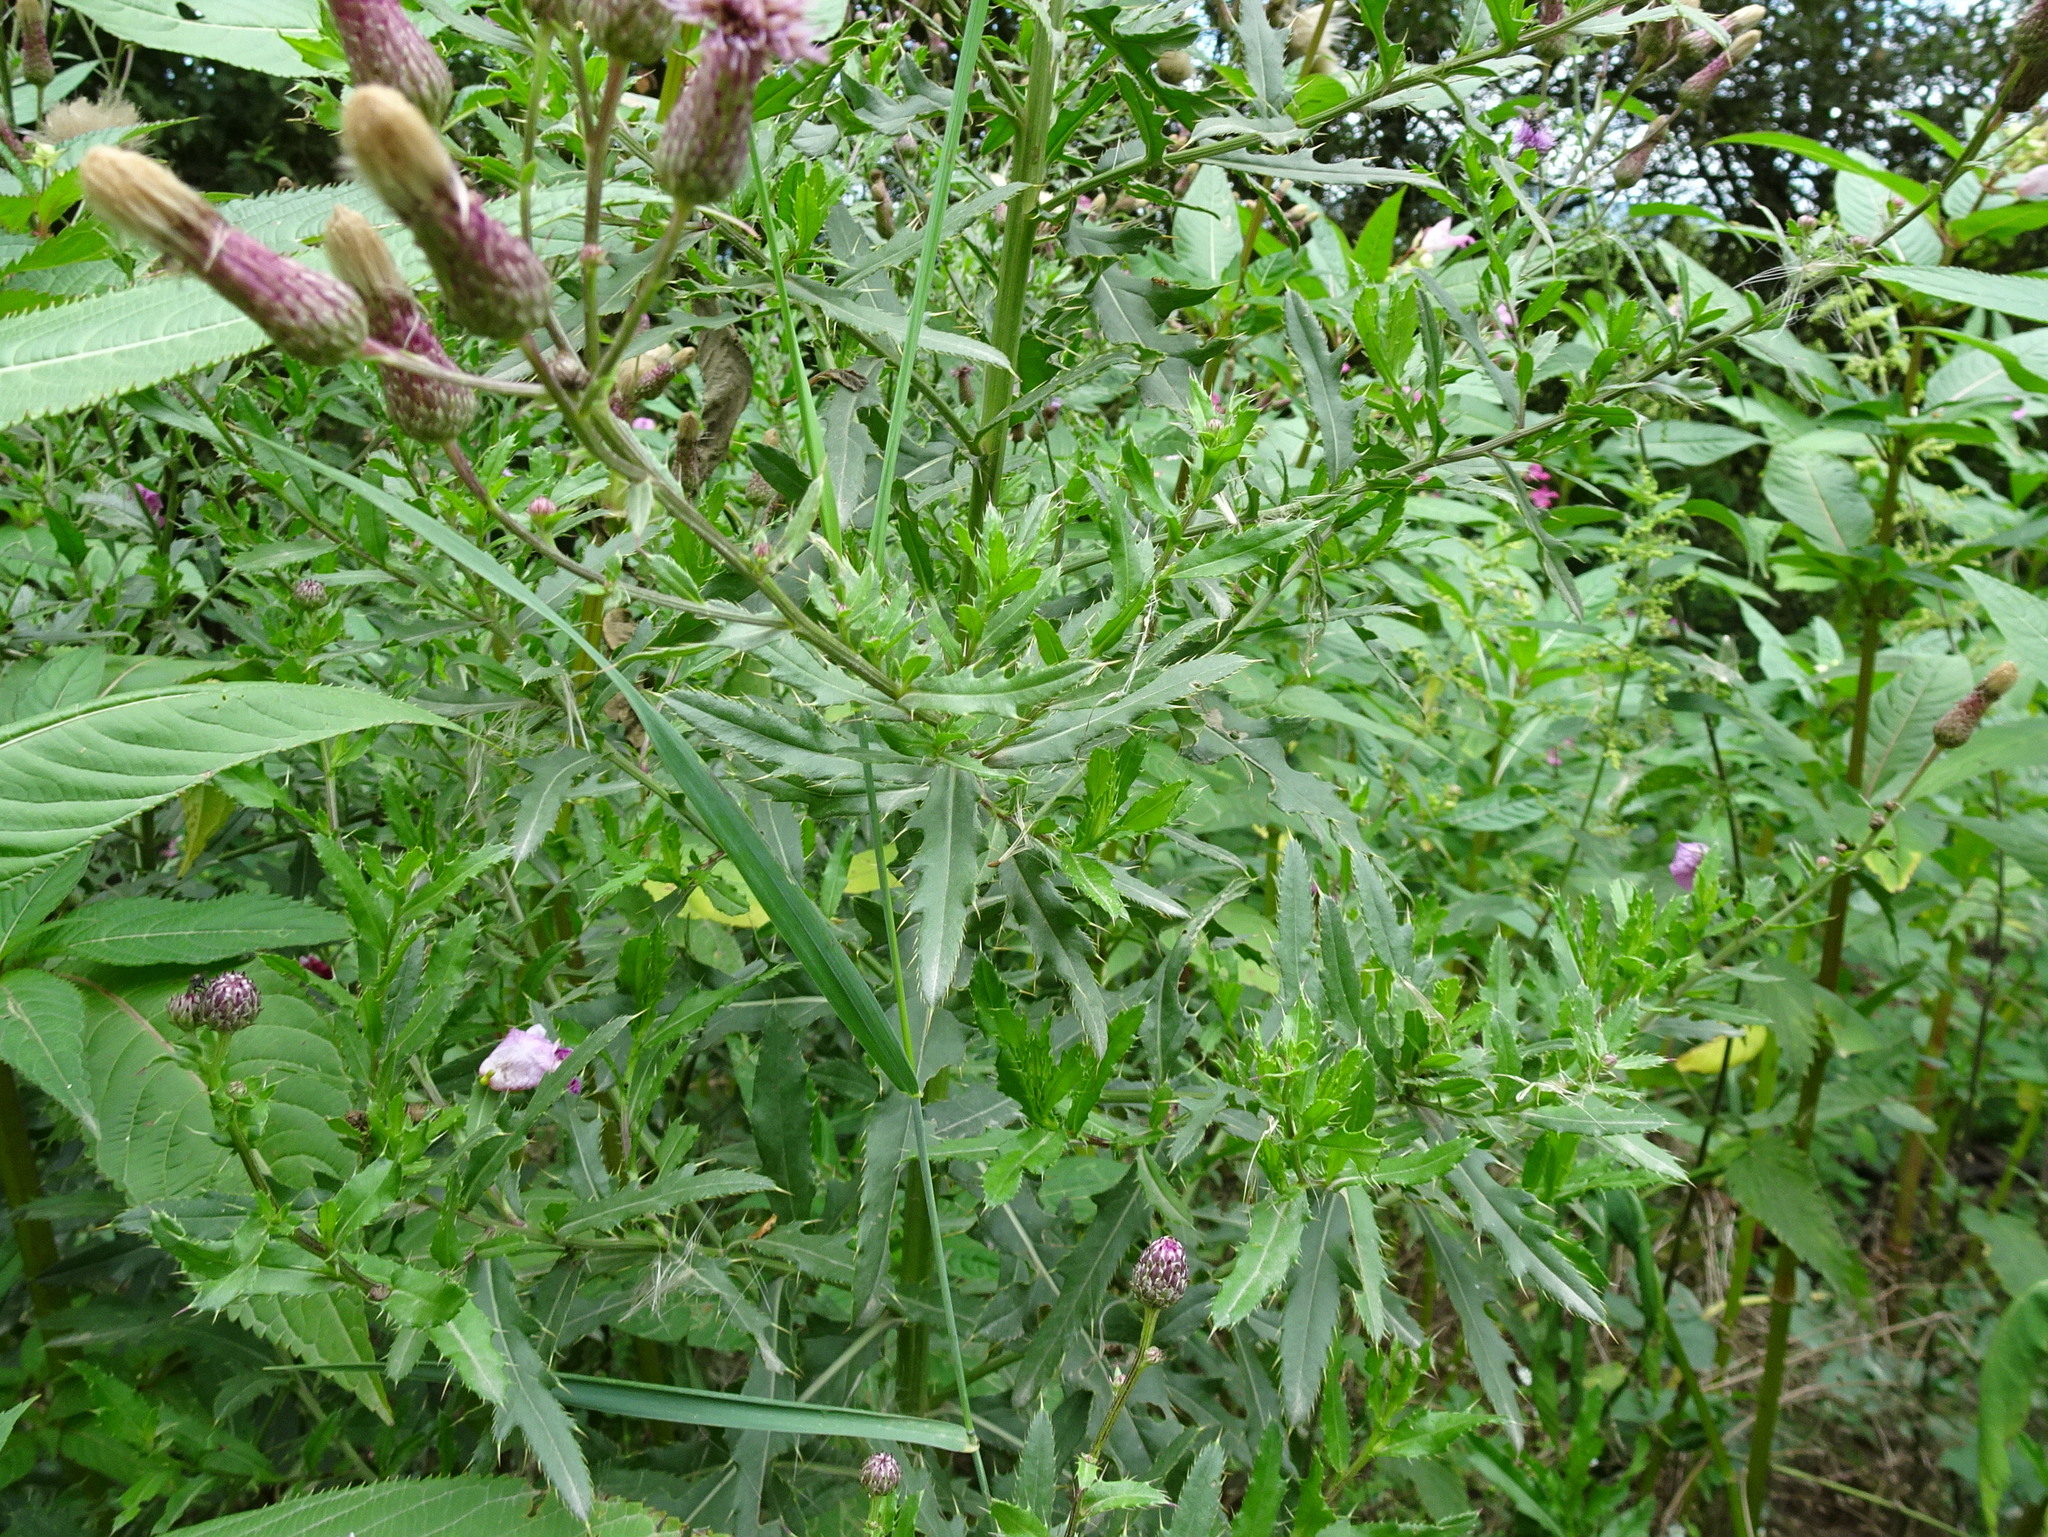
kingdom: Plantae
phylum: Tracheophyta
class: Magnoliopsida
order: Asterales
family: Asteraceae
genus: Cirsium
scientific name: Cirsium arvense
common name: Creeping thistle
